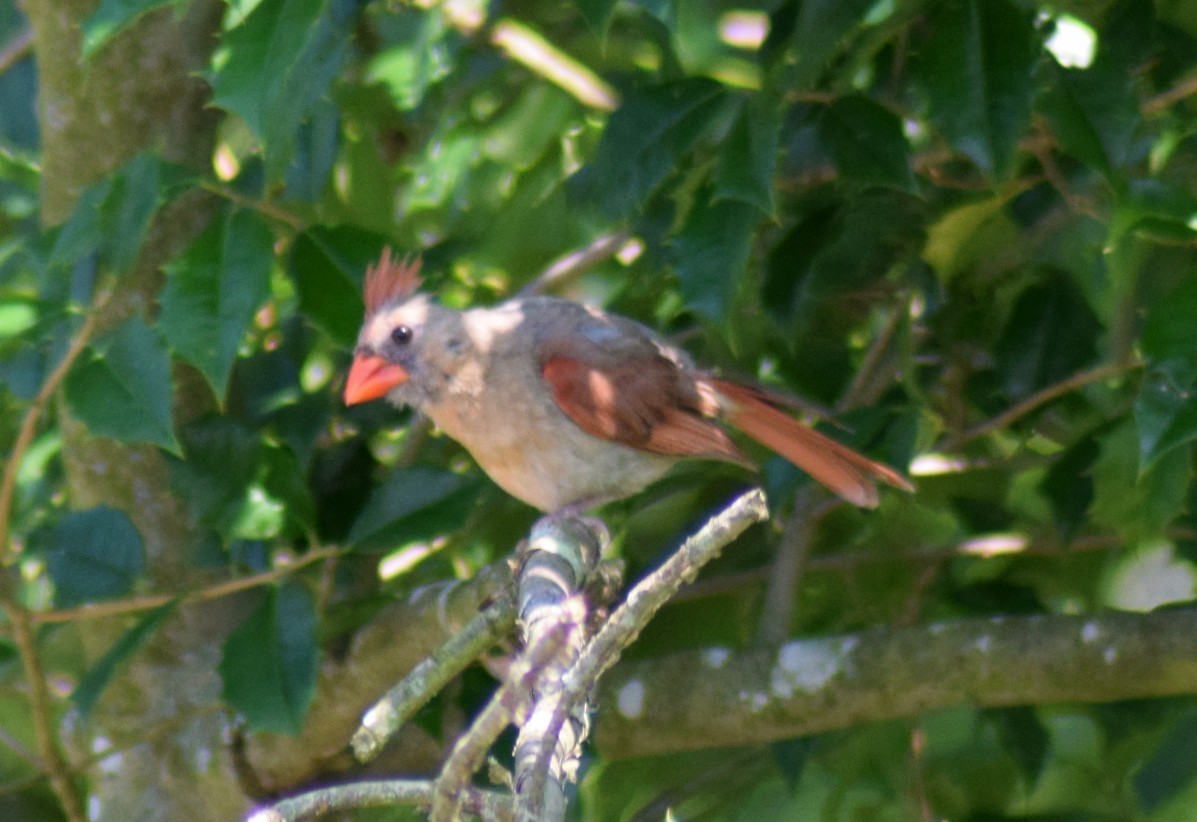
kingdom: Animalia
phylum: Chordata
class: Aves
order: Passeriformes
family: Cardinalidae
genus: Cardinalis
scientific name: Cardinalis cardinalis
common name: Northern cardinal
